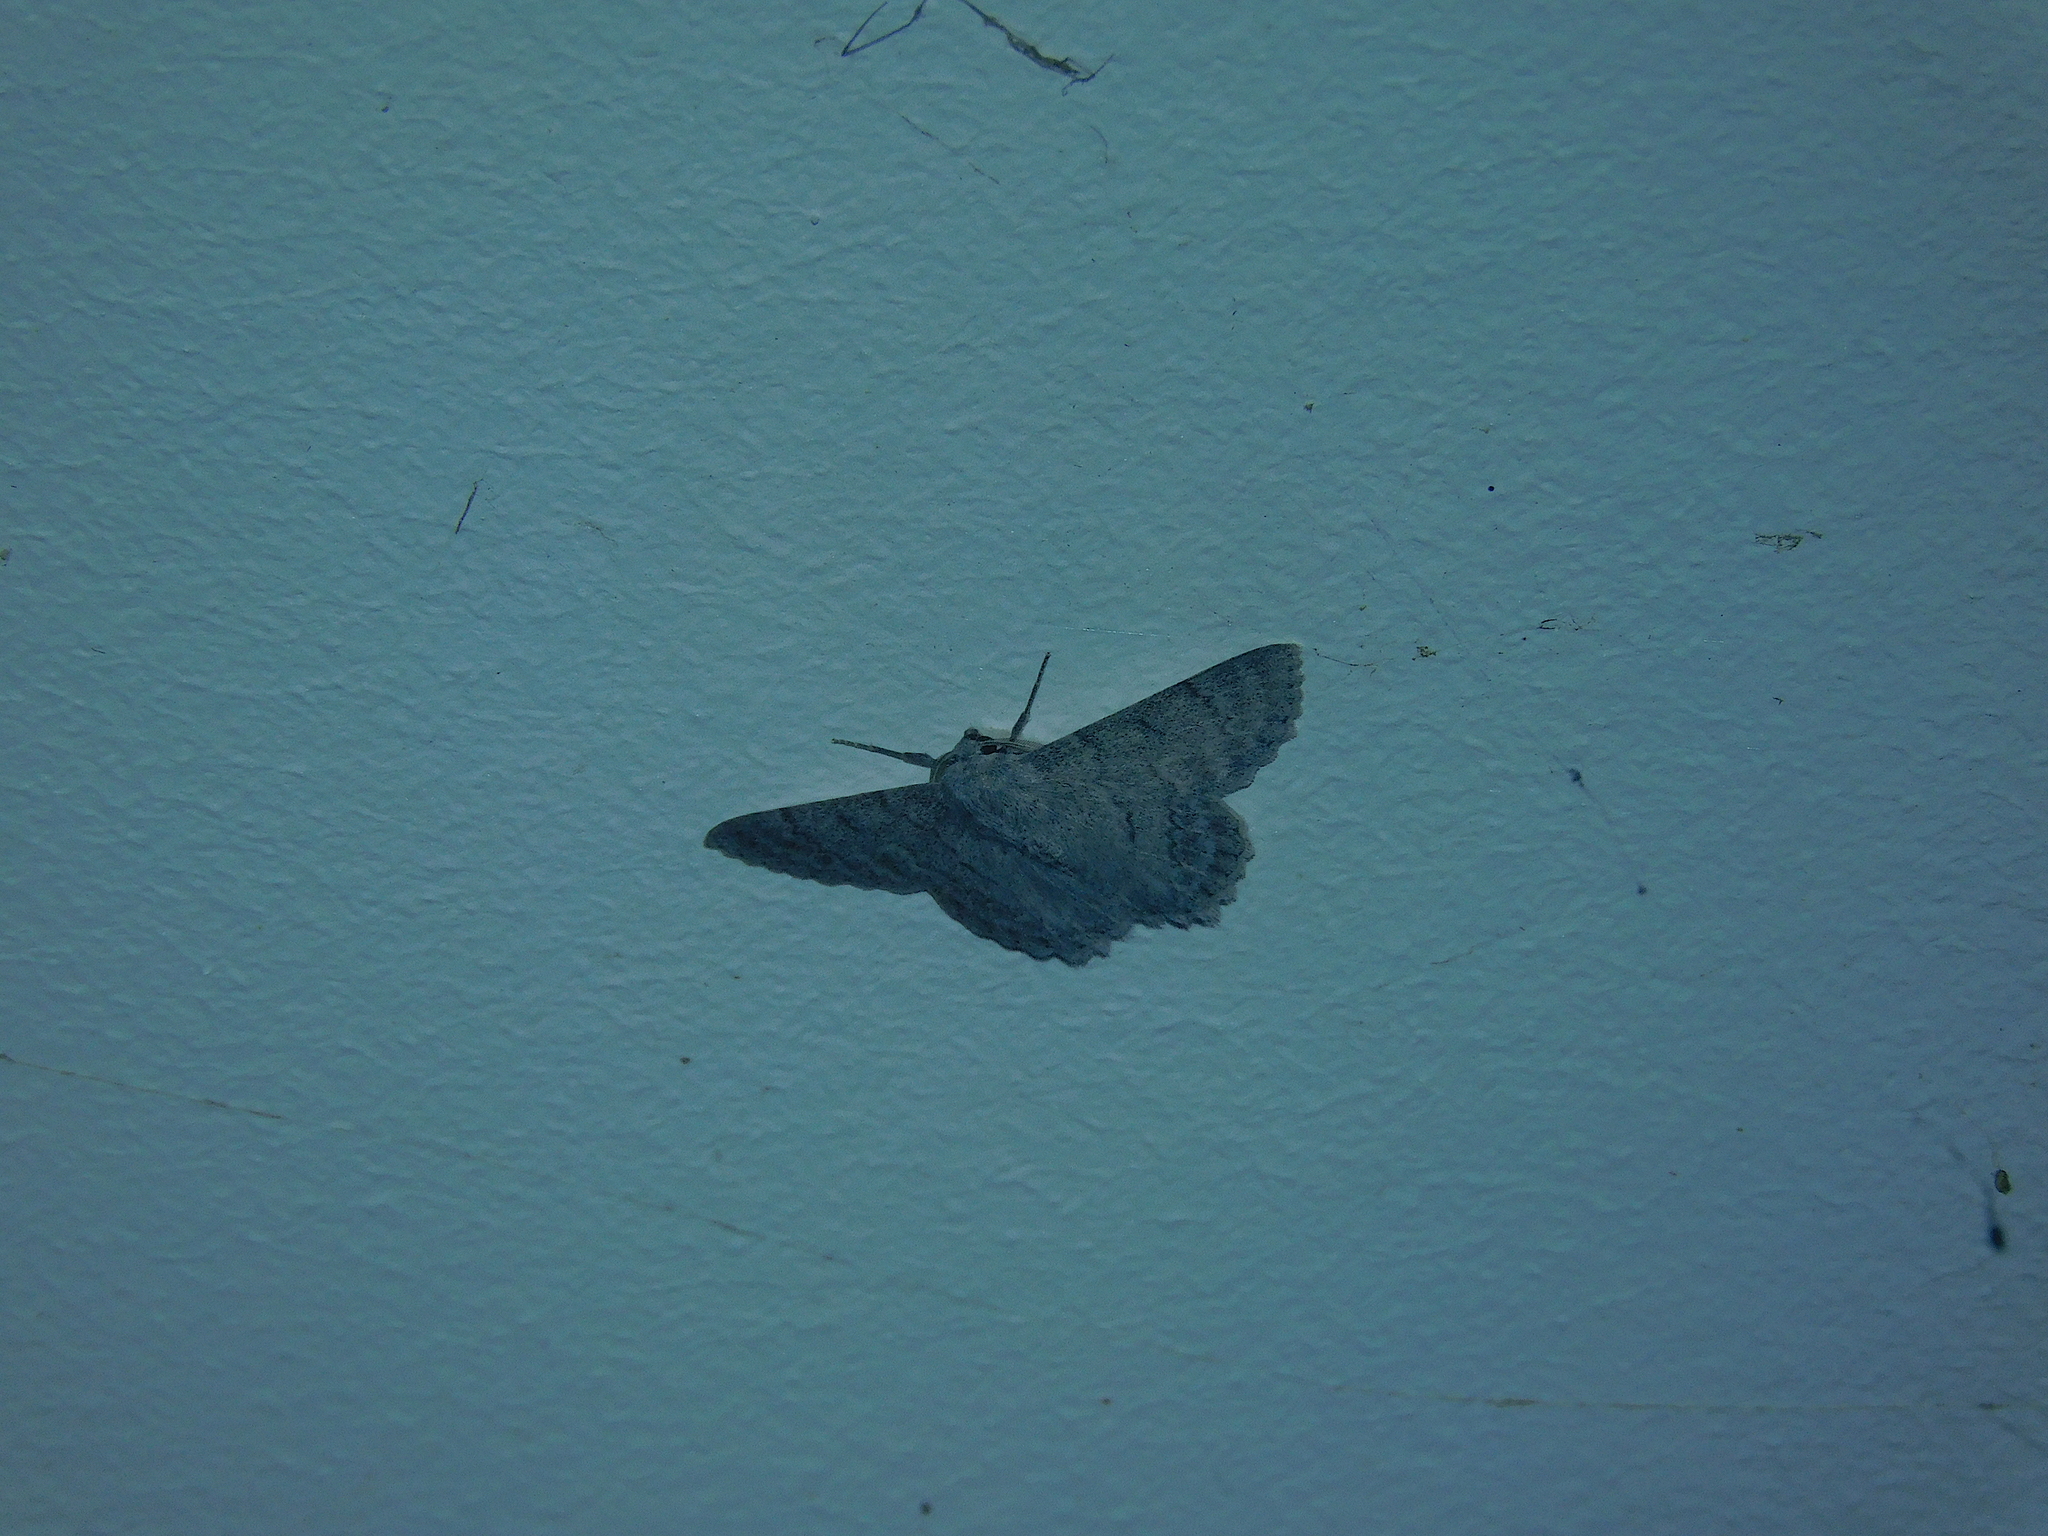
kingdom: Animalia
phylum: Arthropoda
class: Insecta
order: Lepidoptera
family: Geometridae
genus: Crypsiphona
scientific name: Crypsiphona
